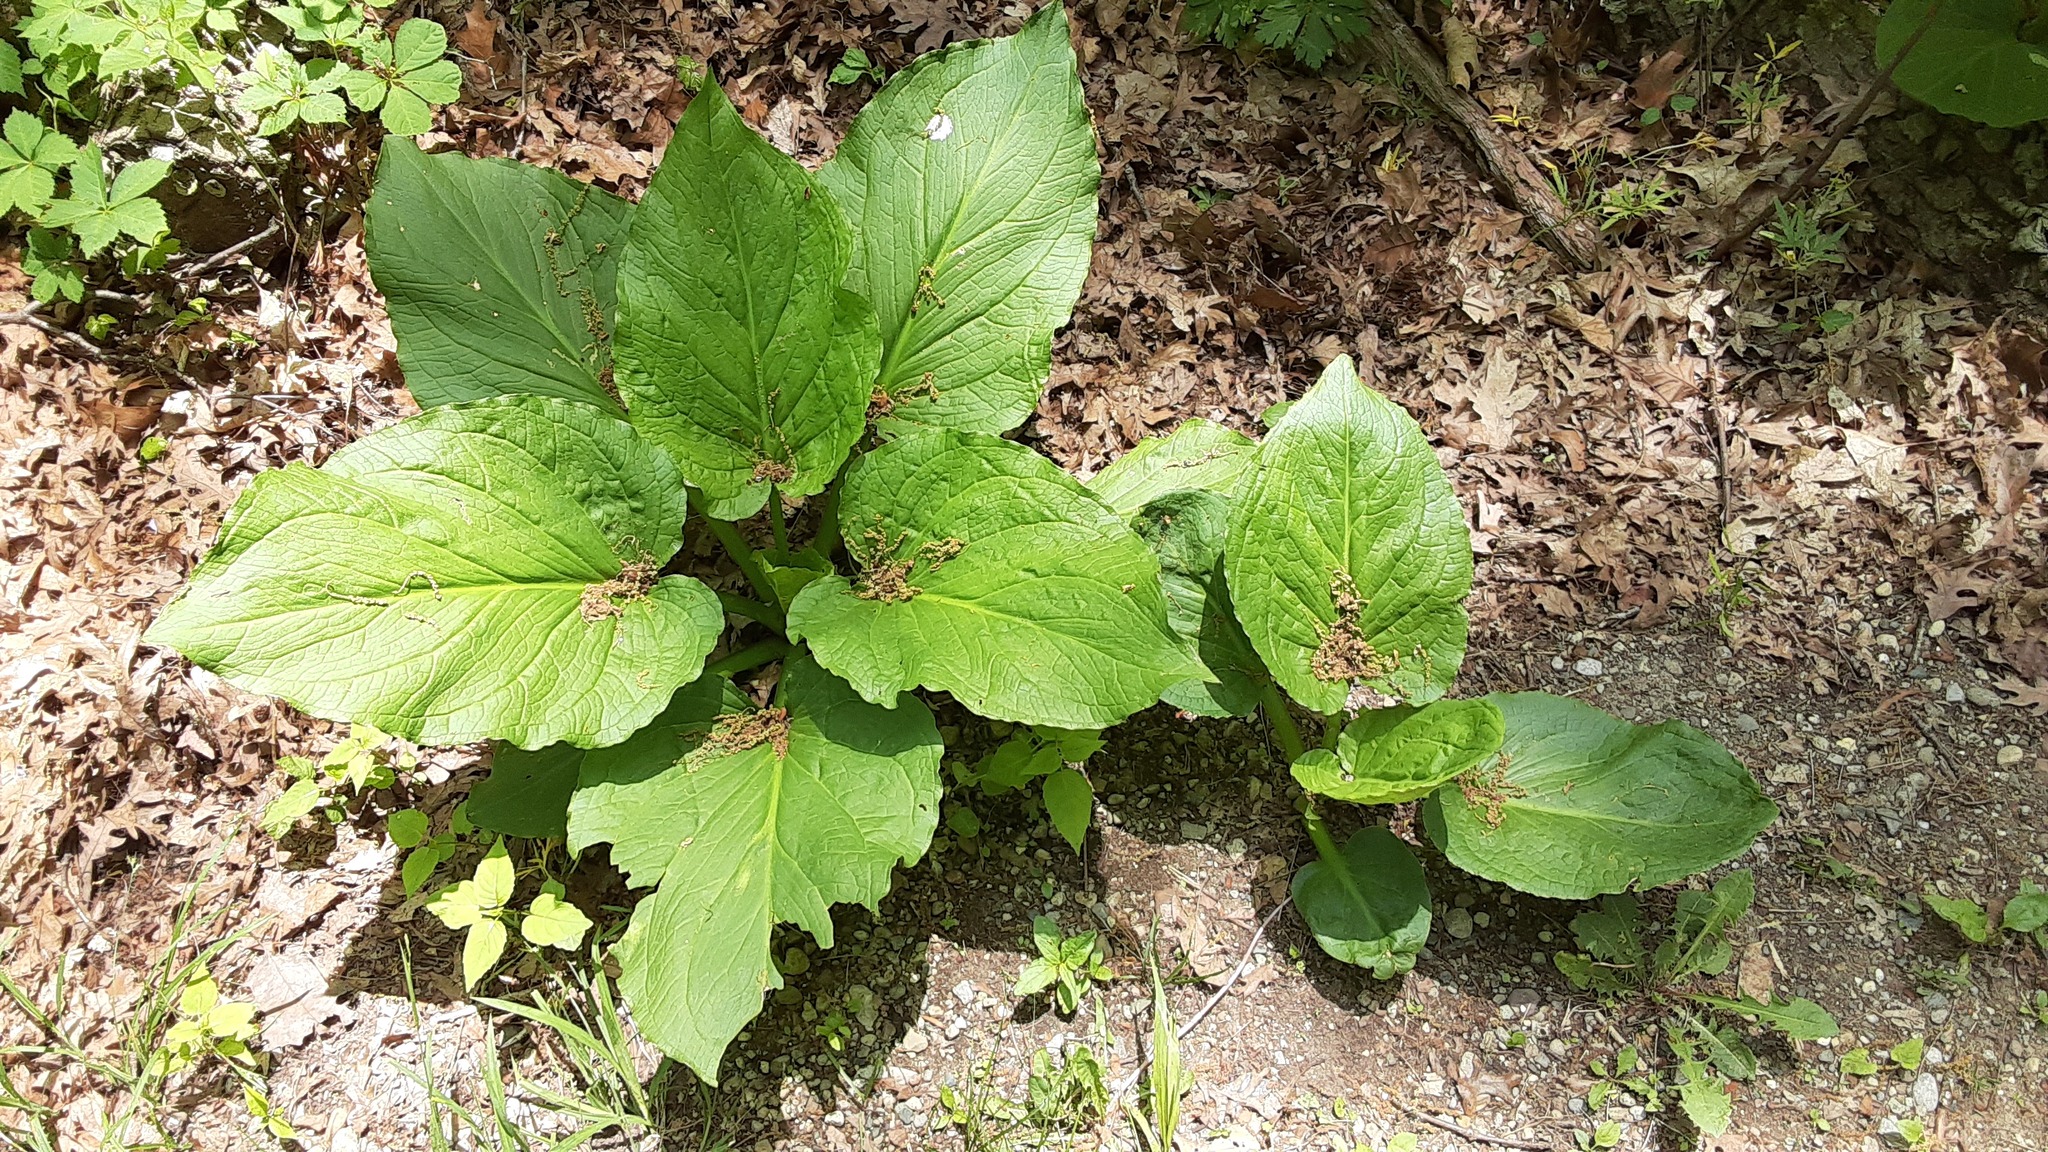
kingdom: Plantae
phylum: Tracheophyta
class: Liliopsida
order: Alismatales
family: Araceae
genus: Symplocarpus
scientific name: Symplocarpus foetidus
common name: Eastern skunk cabbage
